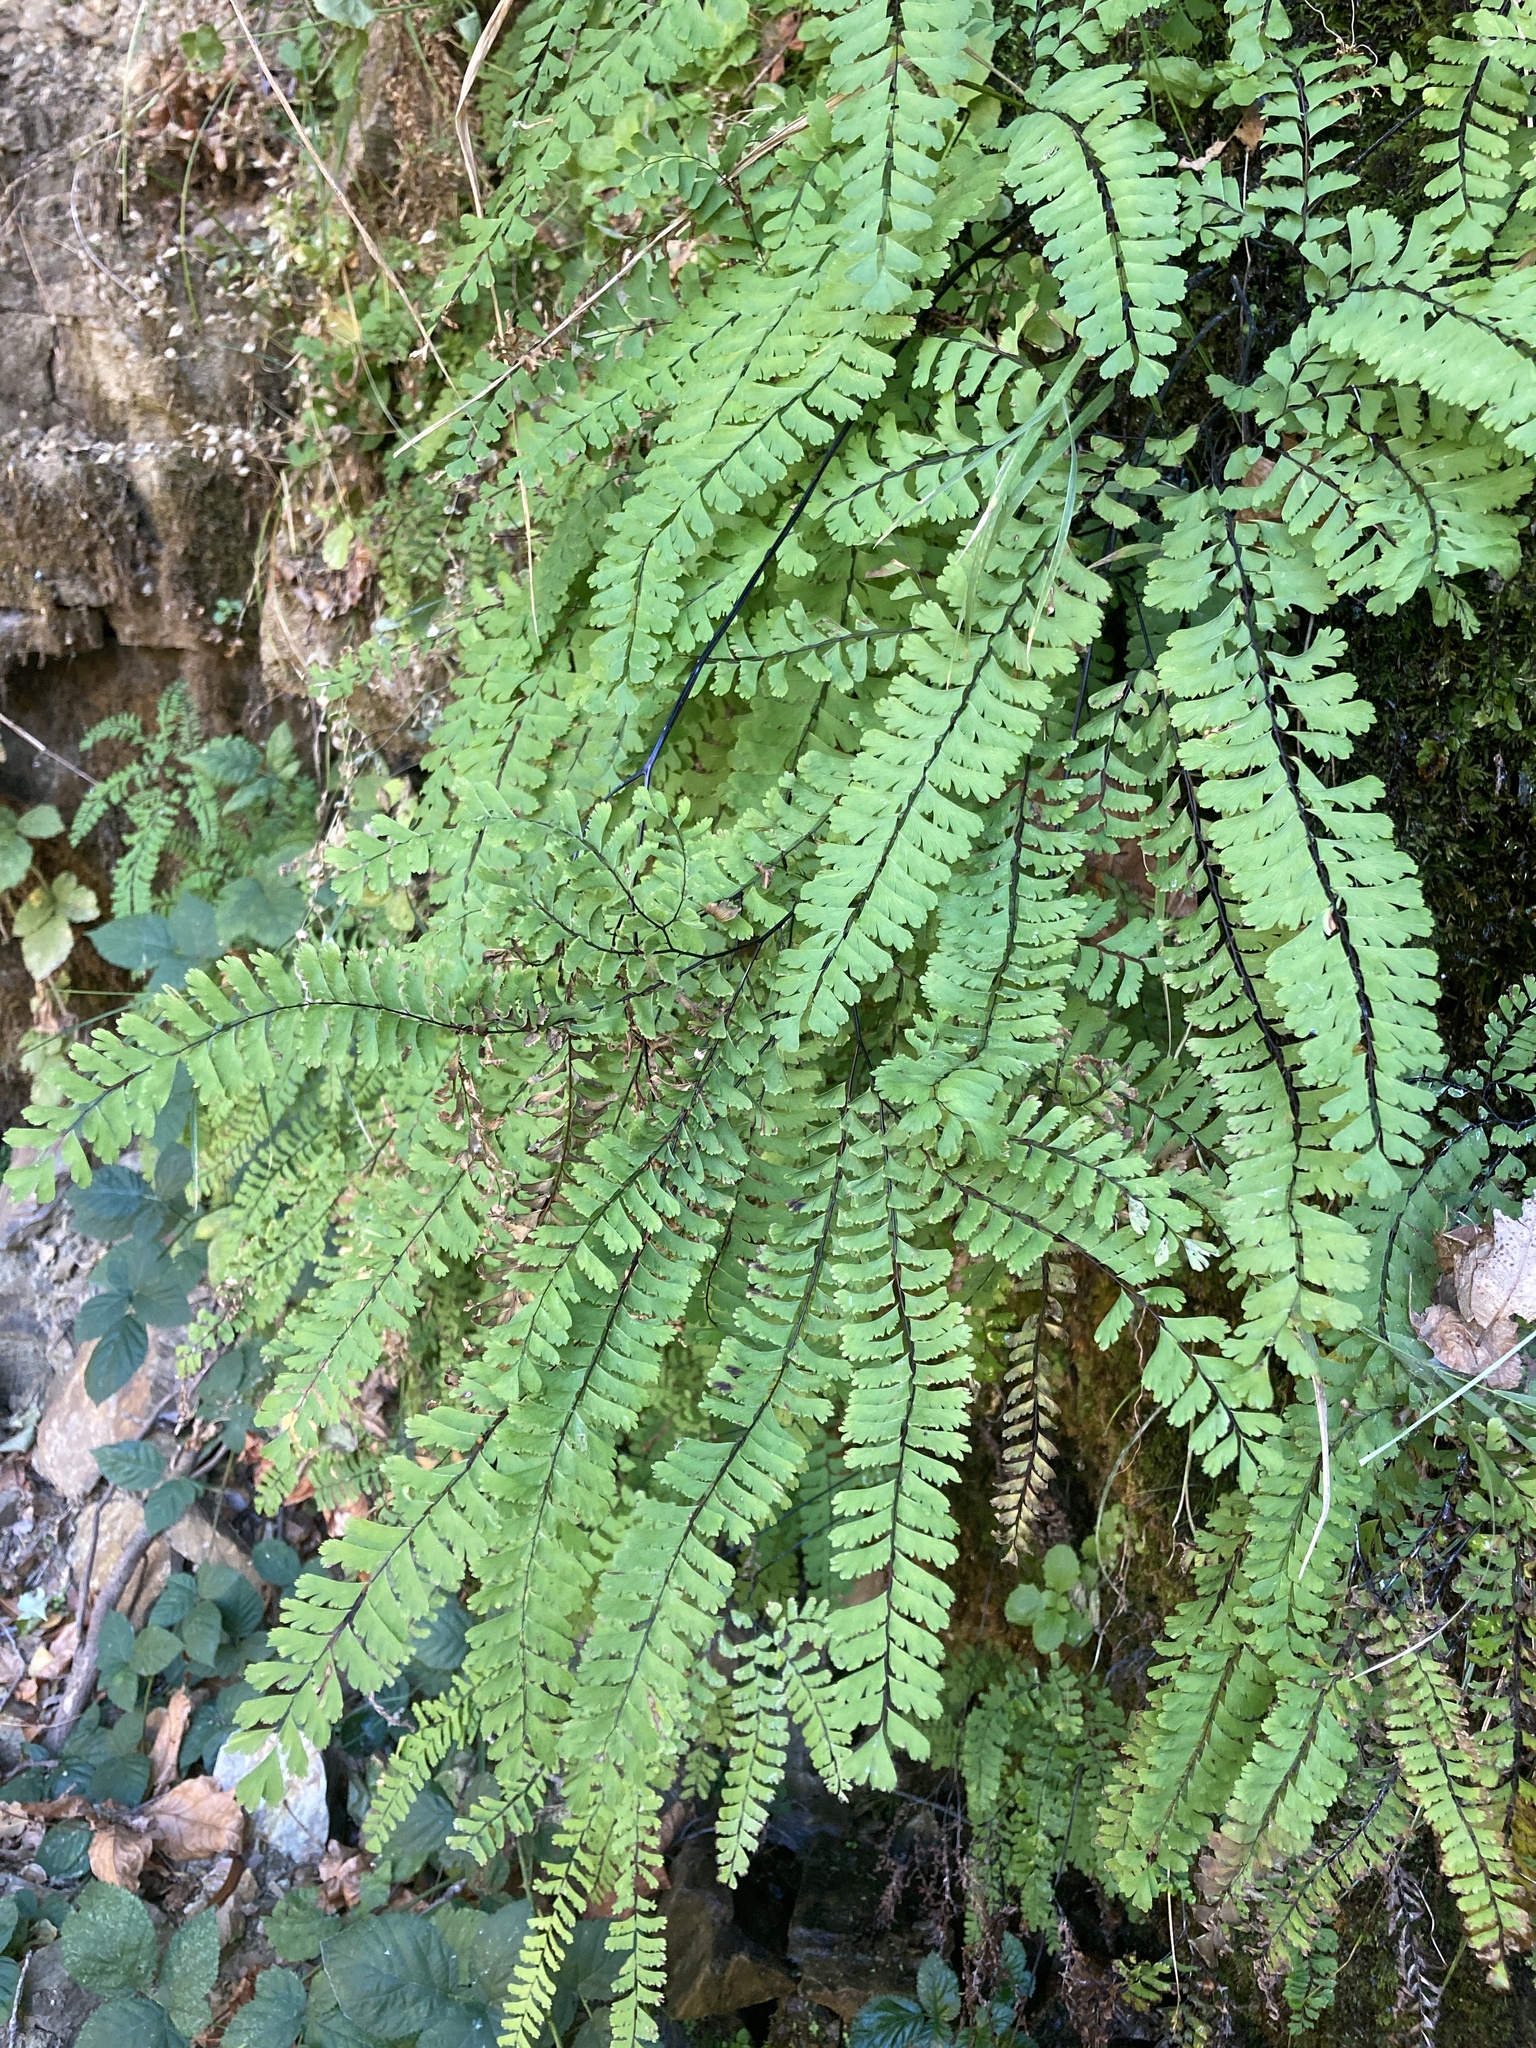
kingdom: Plantae
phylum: Tracheophyta
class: Polypodiopsida
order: Polypodiales
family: Pteridaceae
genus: Adiantum
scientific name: Adiantum aleuticum
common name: Aleutian maidenhair fern
